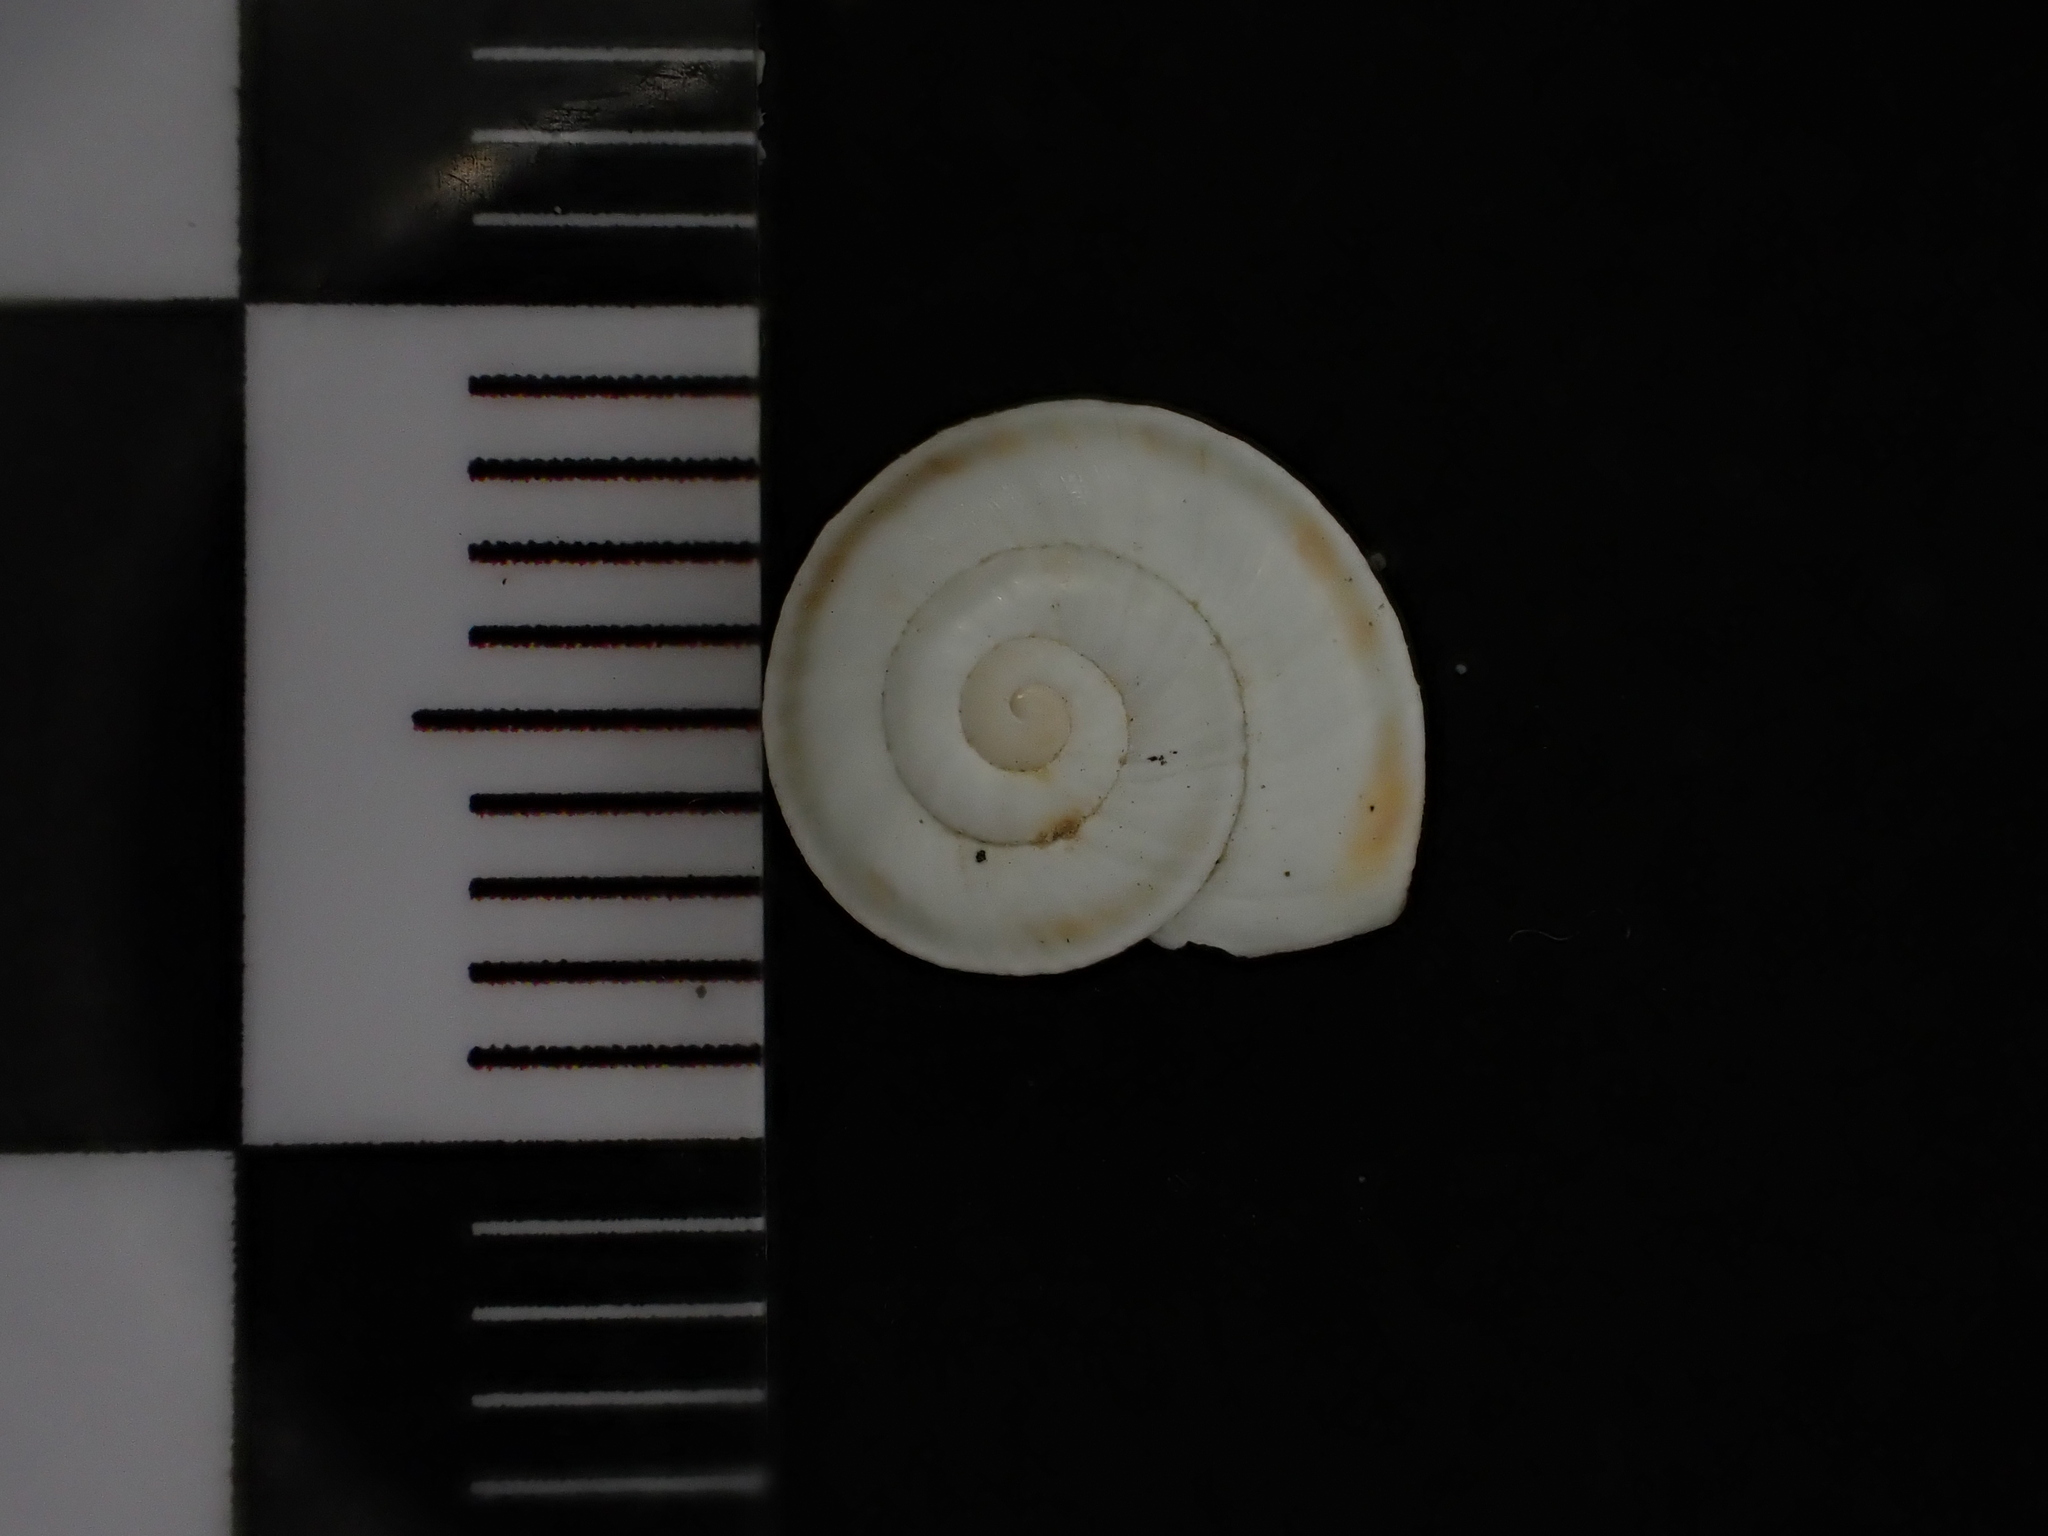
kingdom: Animalia
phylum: Mollusca
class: Gastropoda
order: Stylommatophora
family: Helicidae
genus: Theba
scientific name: Theba pisana
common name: White snail
